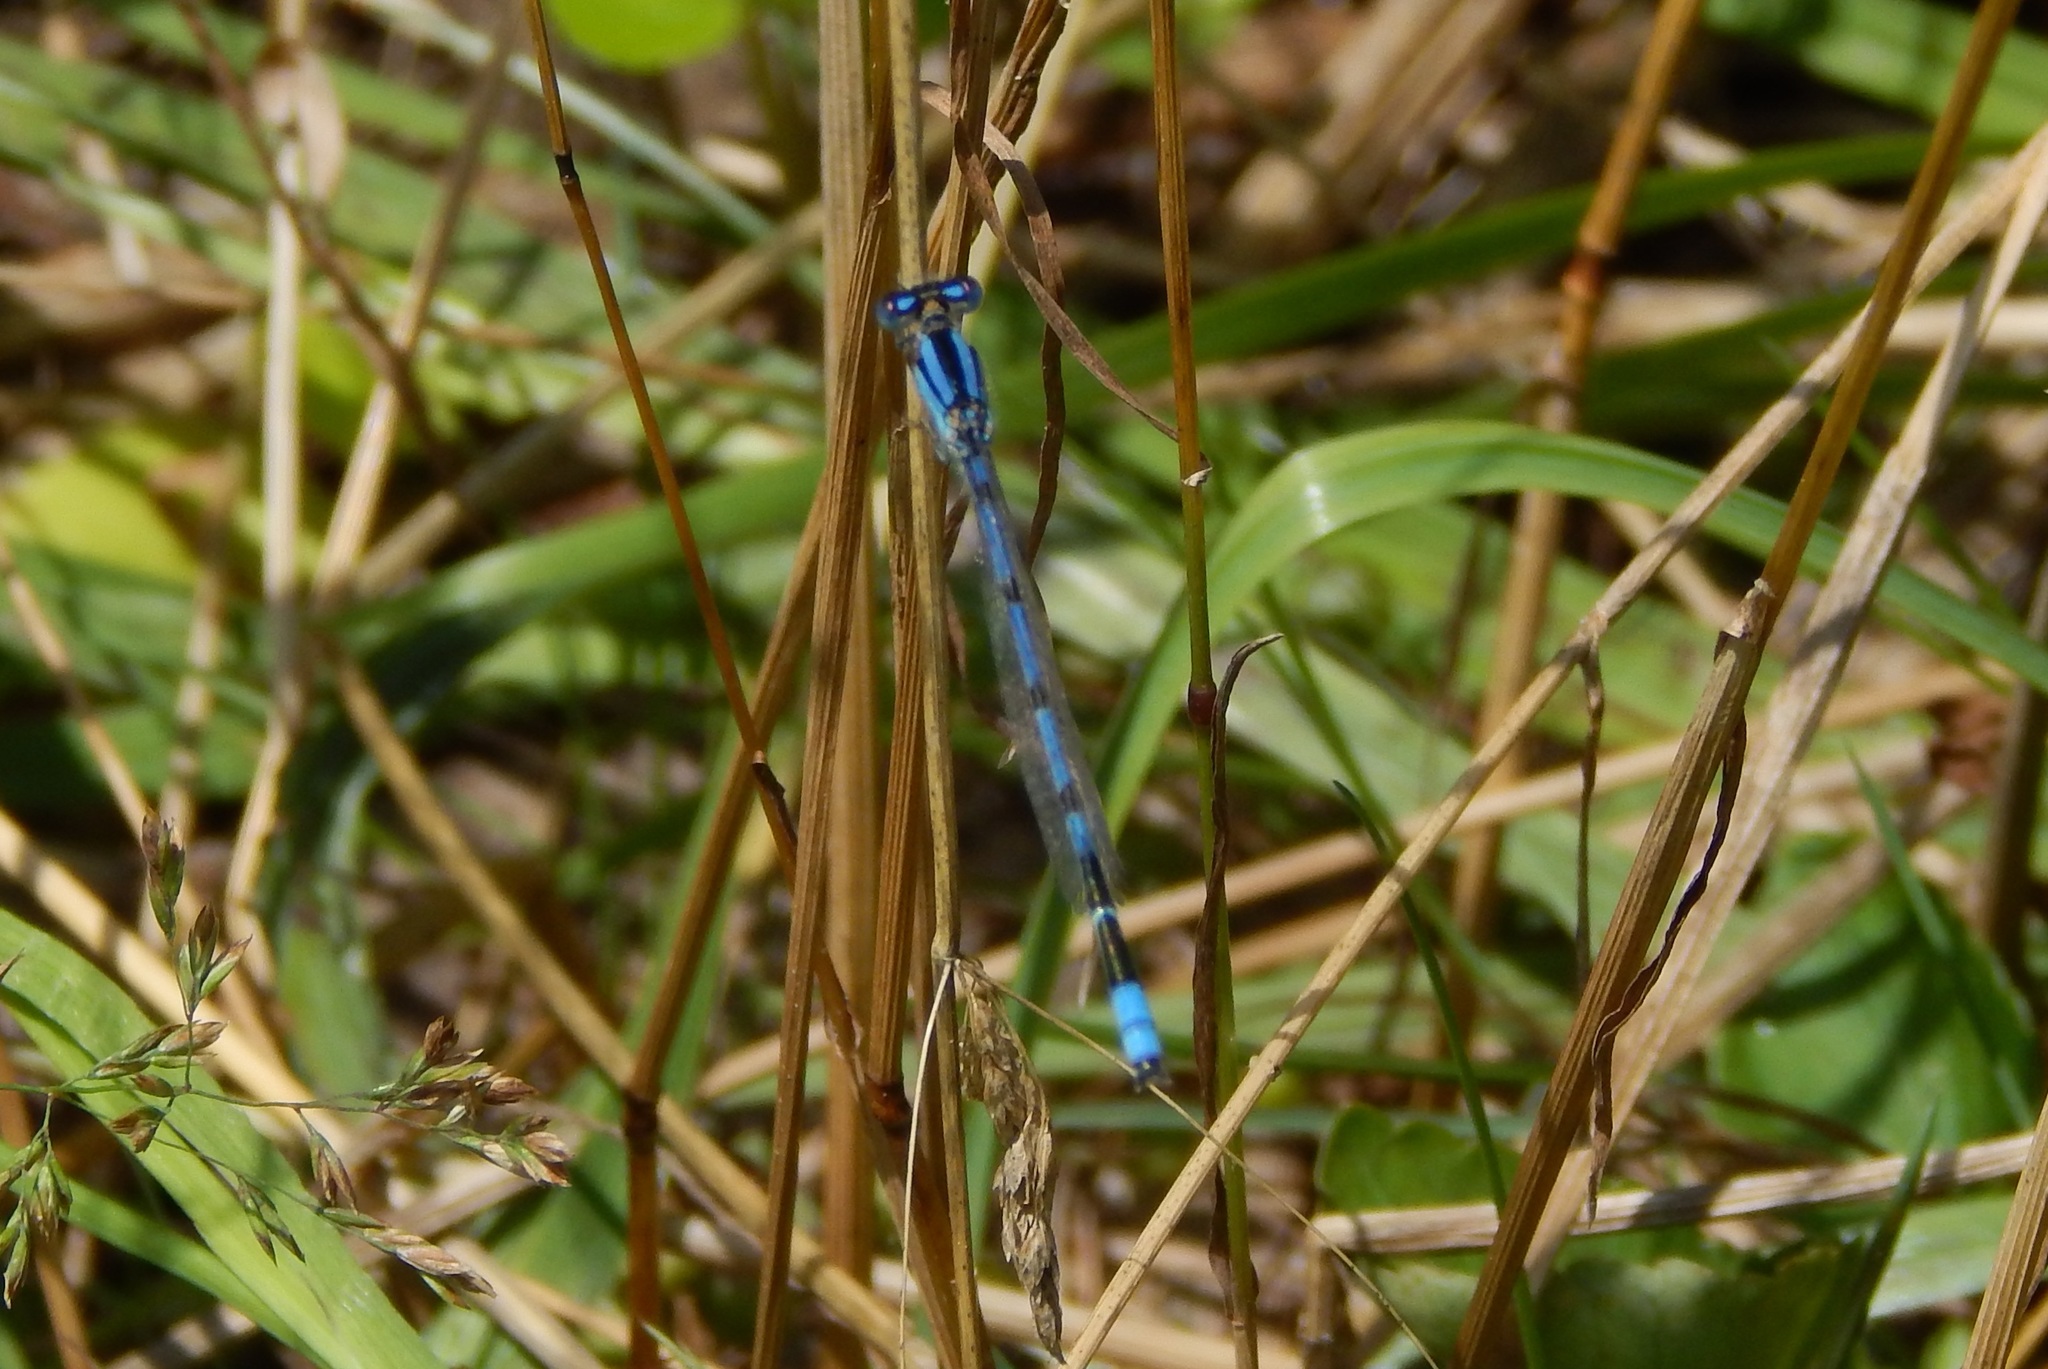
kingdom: Animalia
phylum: Arthropoda
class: Insecta
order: Odonata
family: Coenagrionidae
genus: Enallagma
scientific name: Enallagma civile
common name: Damselfly
